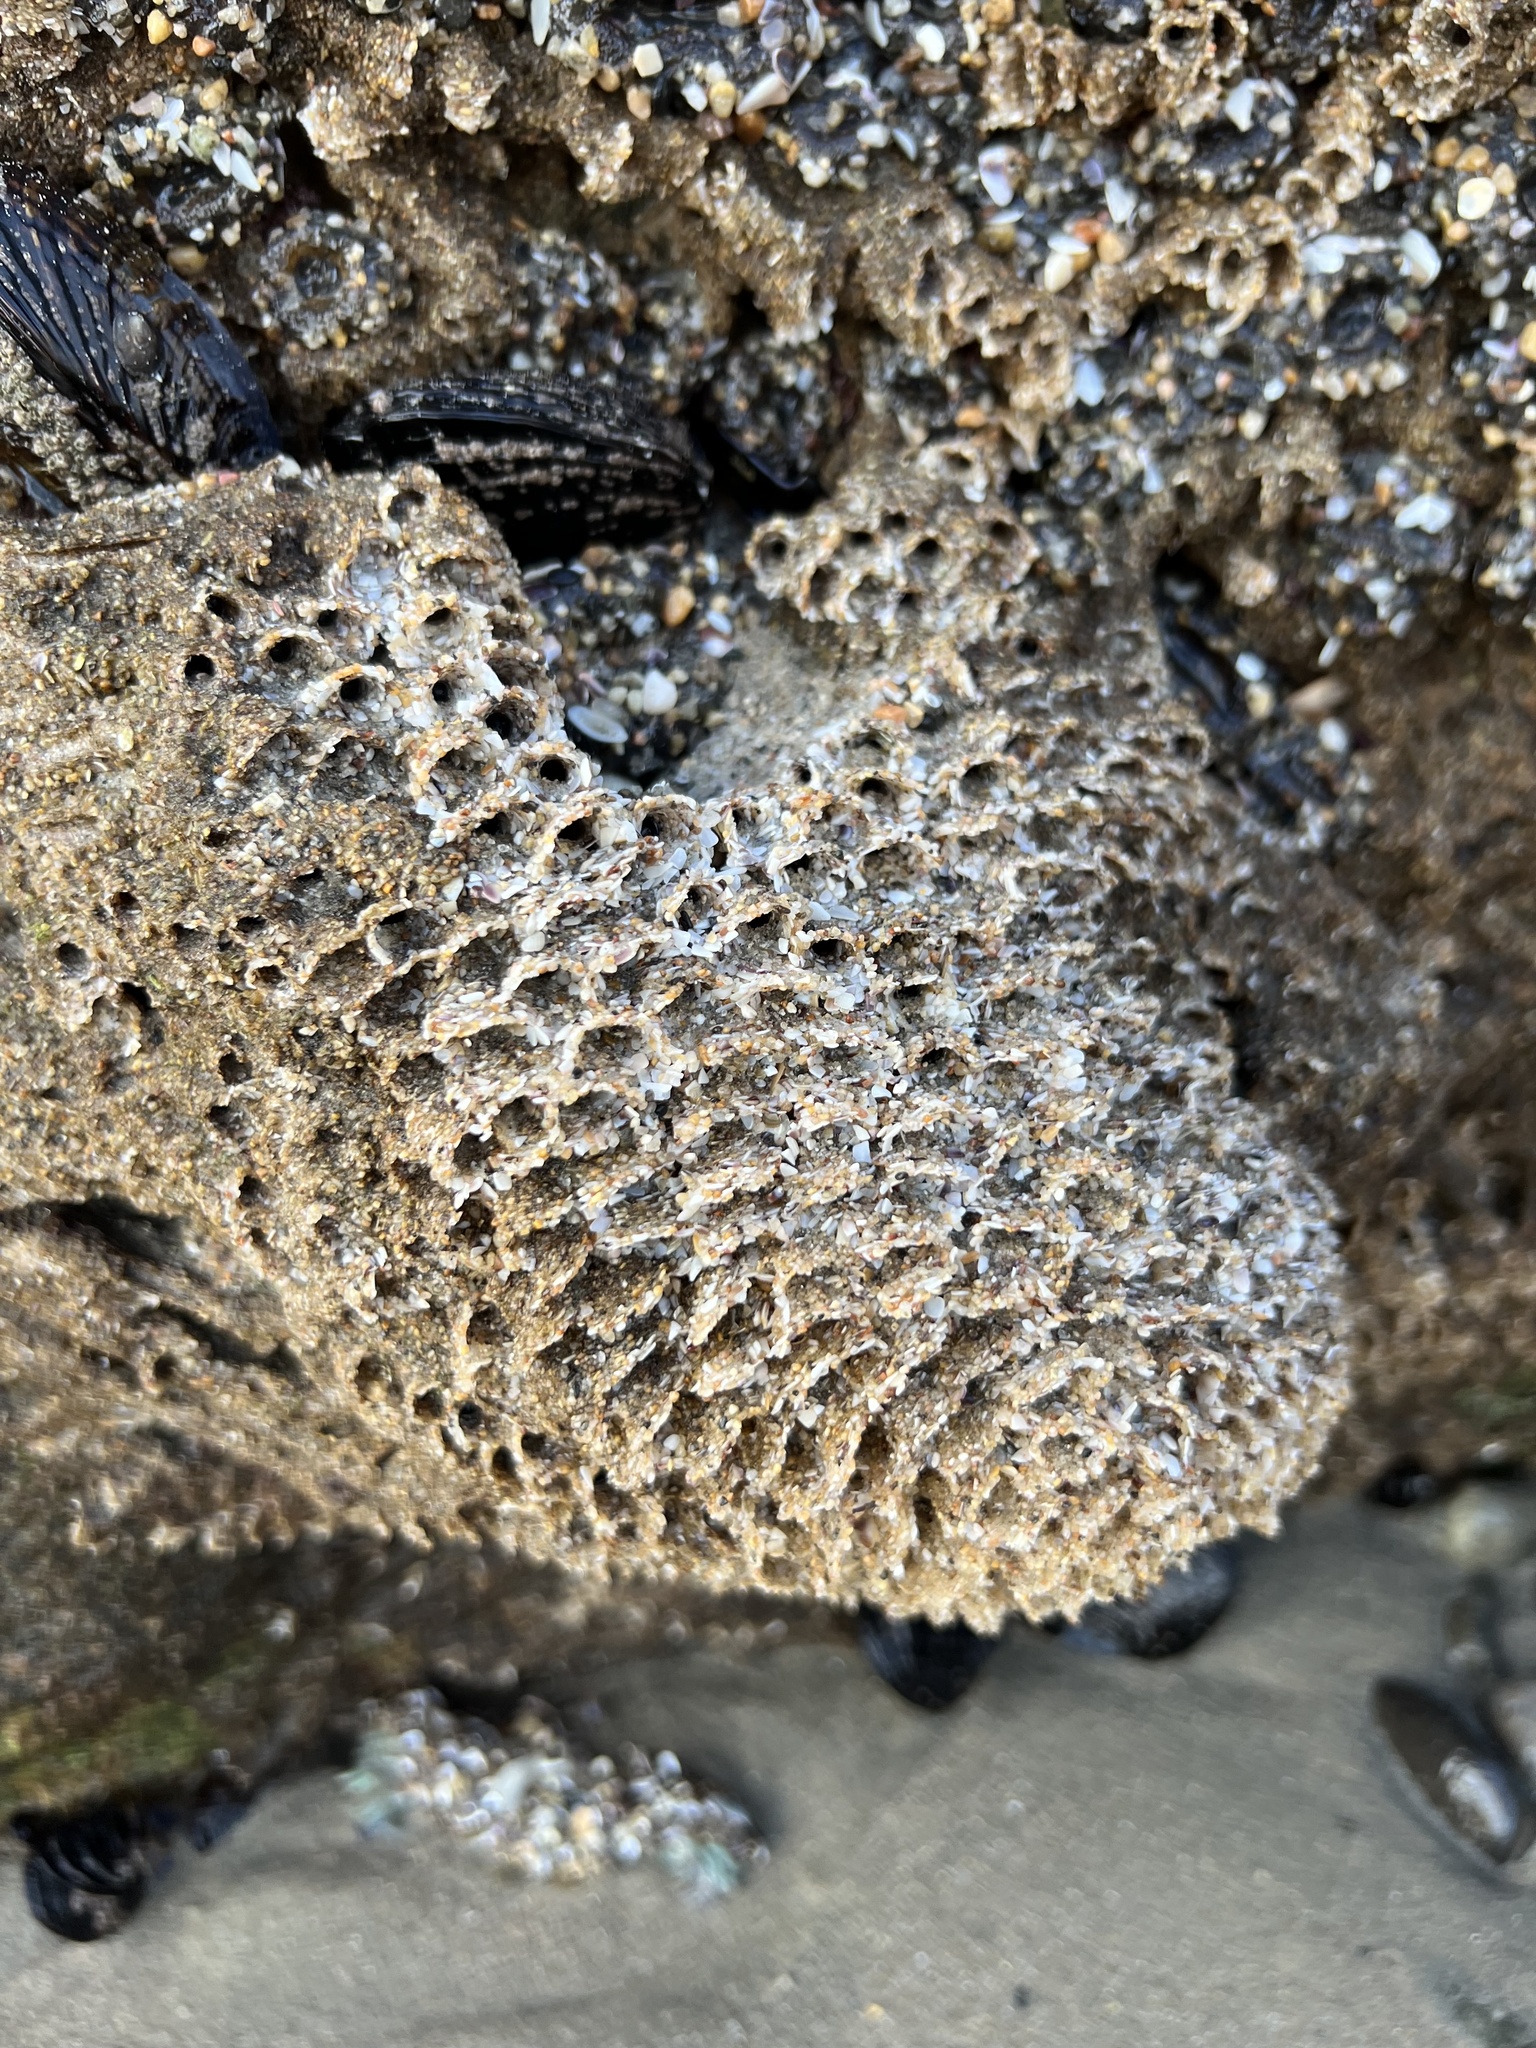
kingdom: Animalia
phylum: Annelida
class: Polychaeta
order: Sabellida
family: Sabellariidae
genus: Phragmatopoma
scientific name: Phragmatopoma californica
